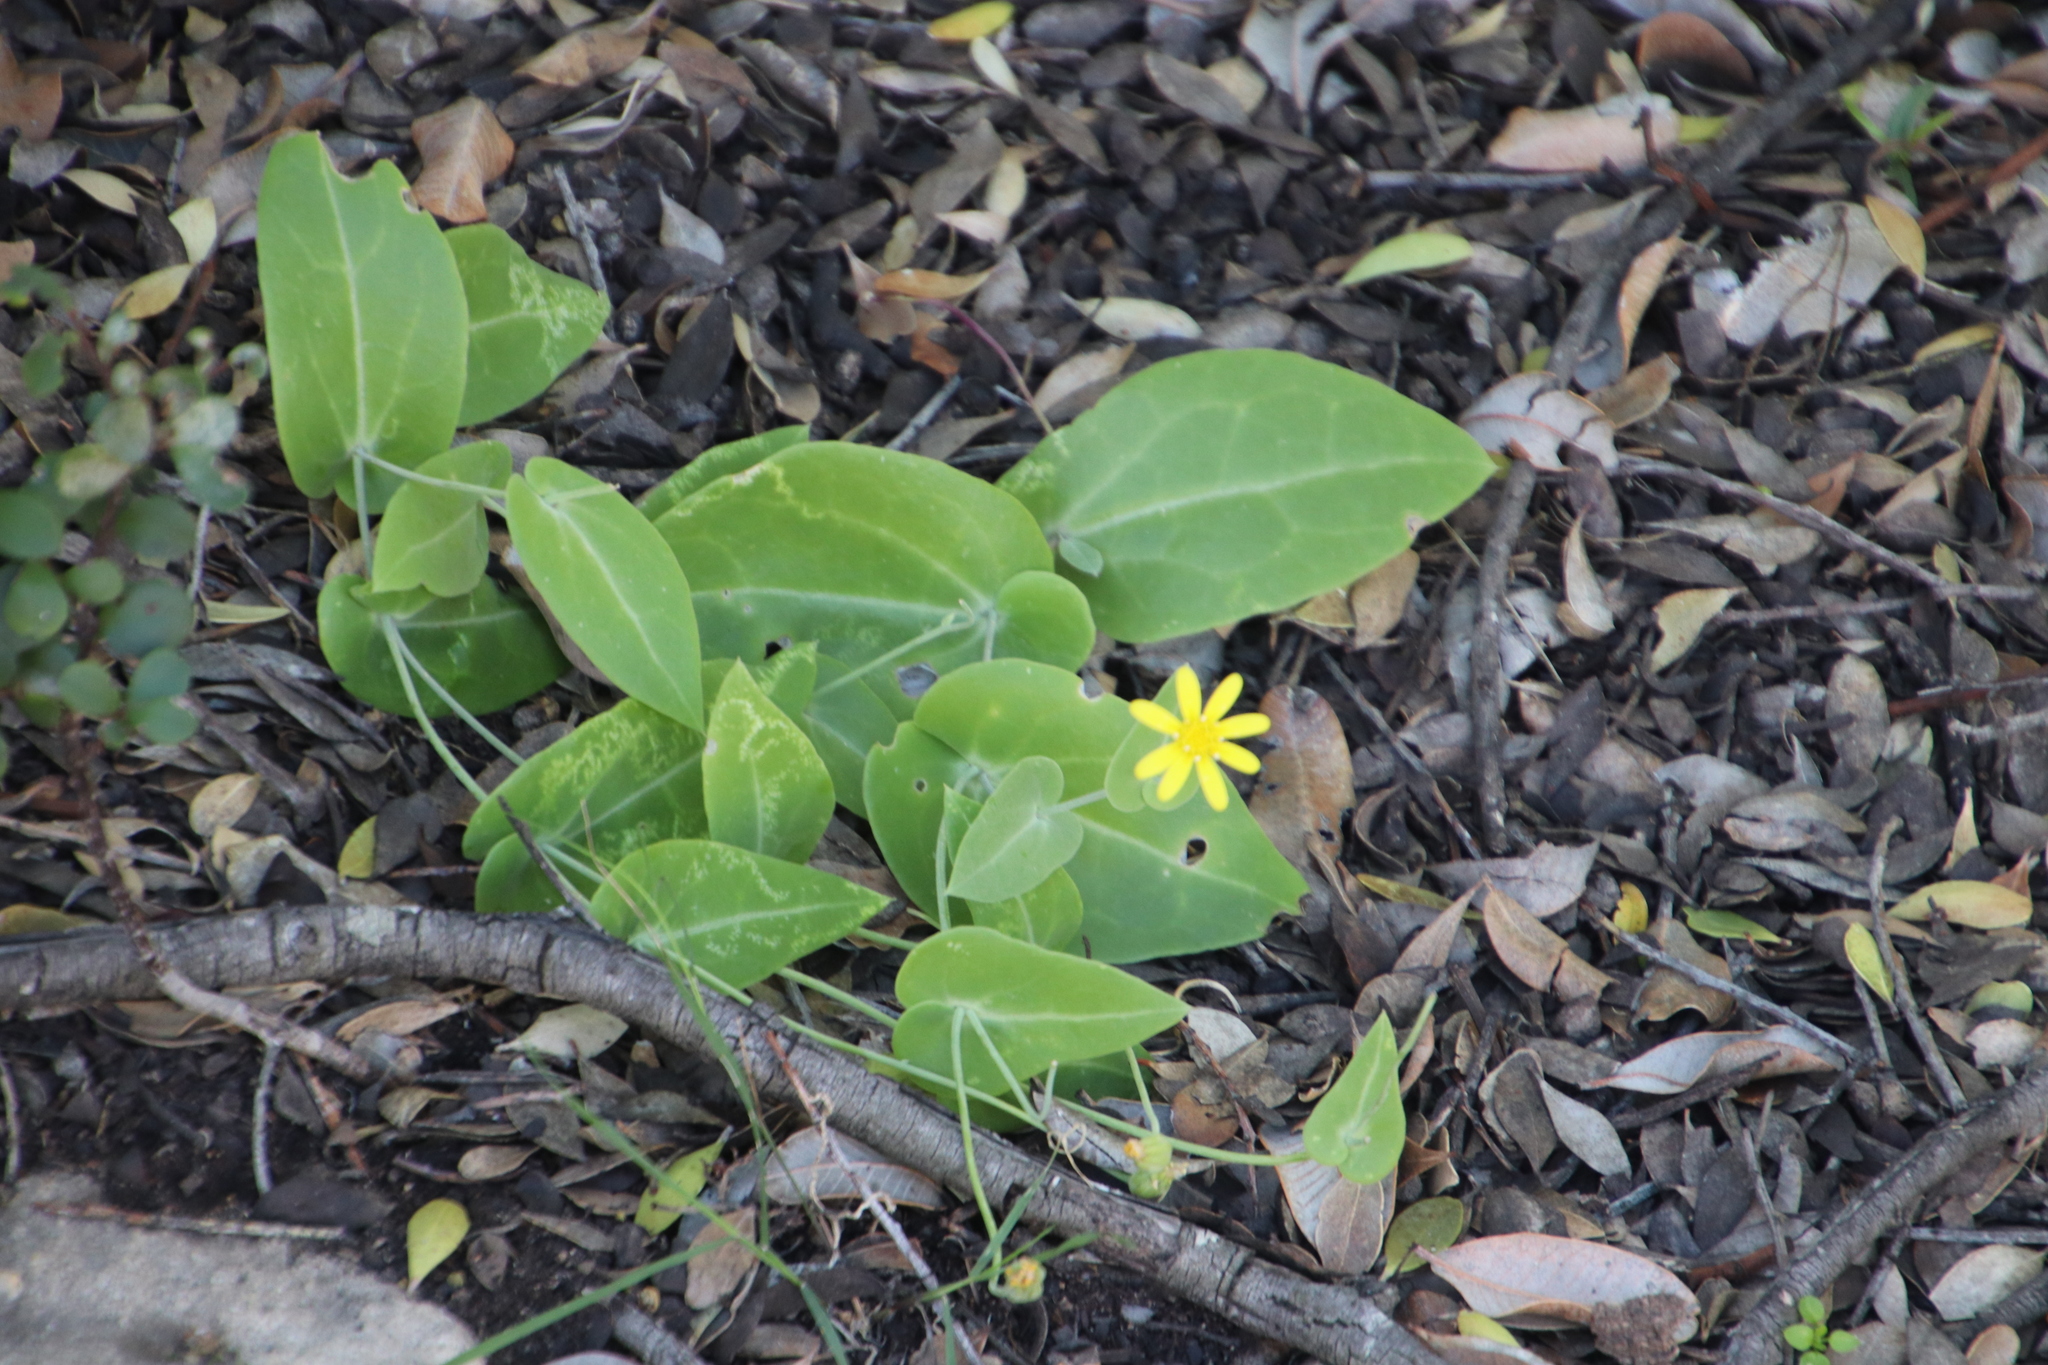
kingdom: Plantae
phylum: Tracheophyta
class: Magnoliopsida
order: Asterales
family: Asteraceae
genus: Othonna
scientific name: Othonna perfoliata
